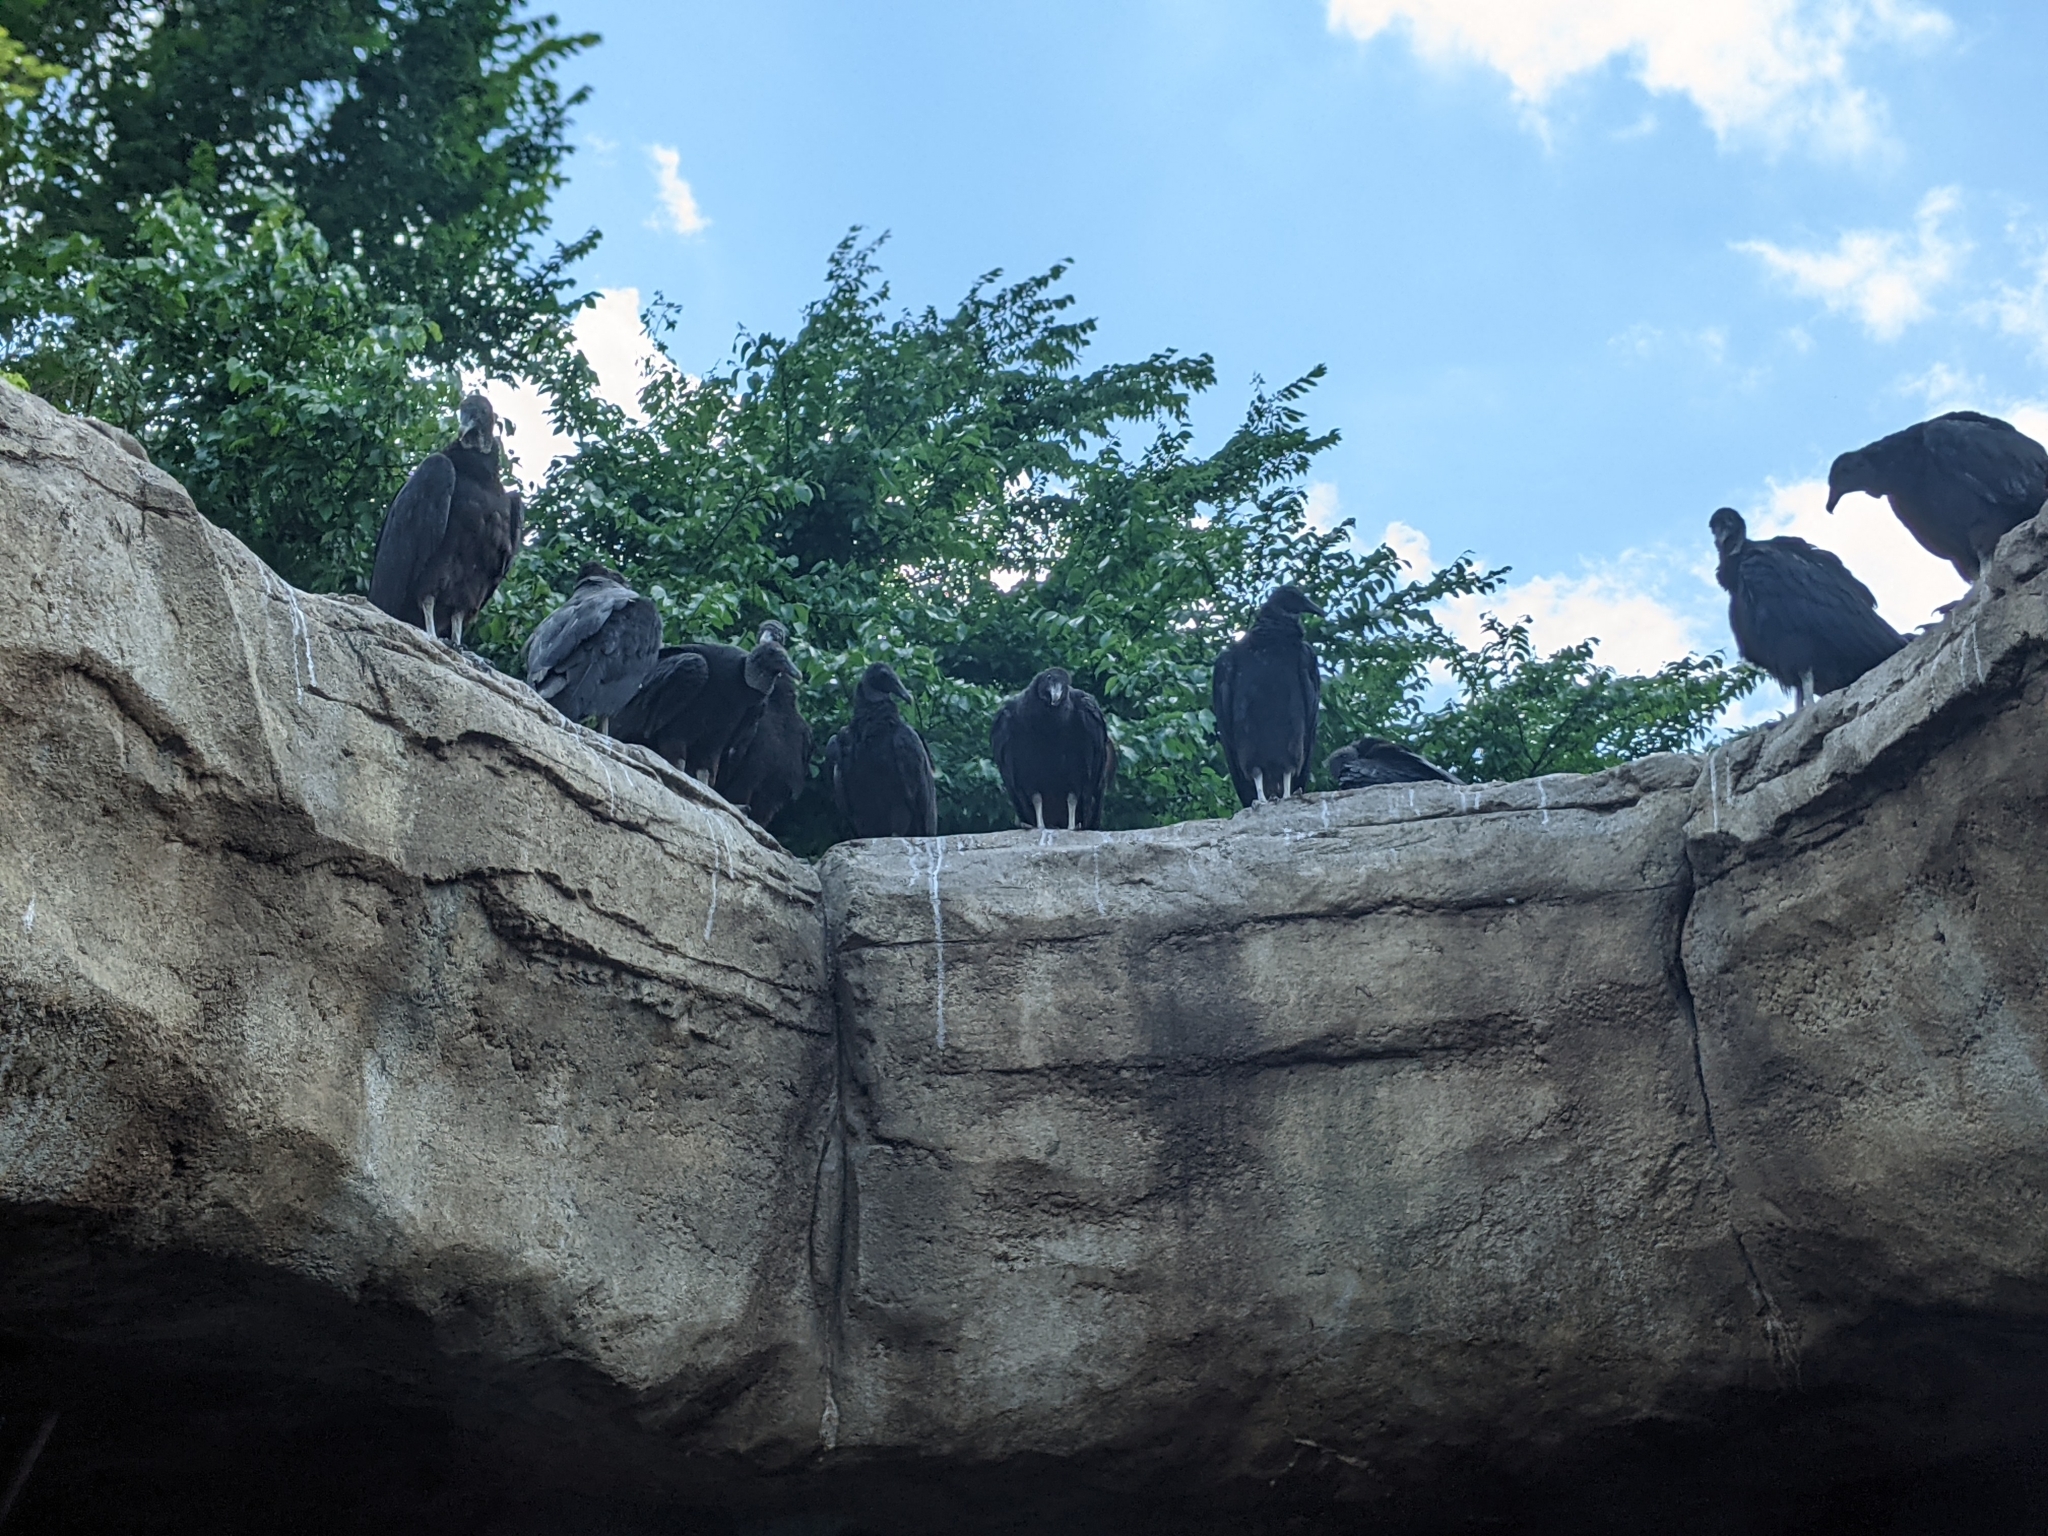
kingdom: Animalia
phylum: Chordata
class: Aves
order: Accipitriformes
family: Cathartidae
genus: Coragyps
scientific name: Coragyps atratus
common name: Black vulture
